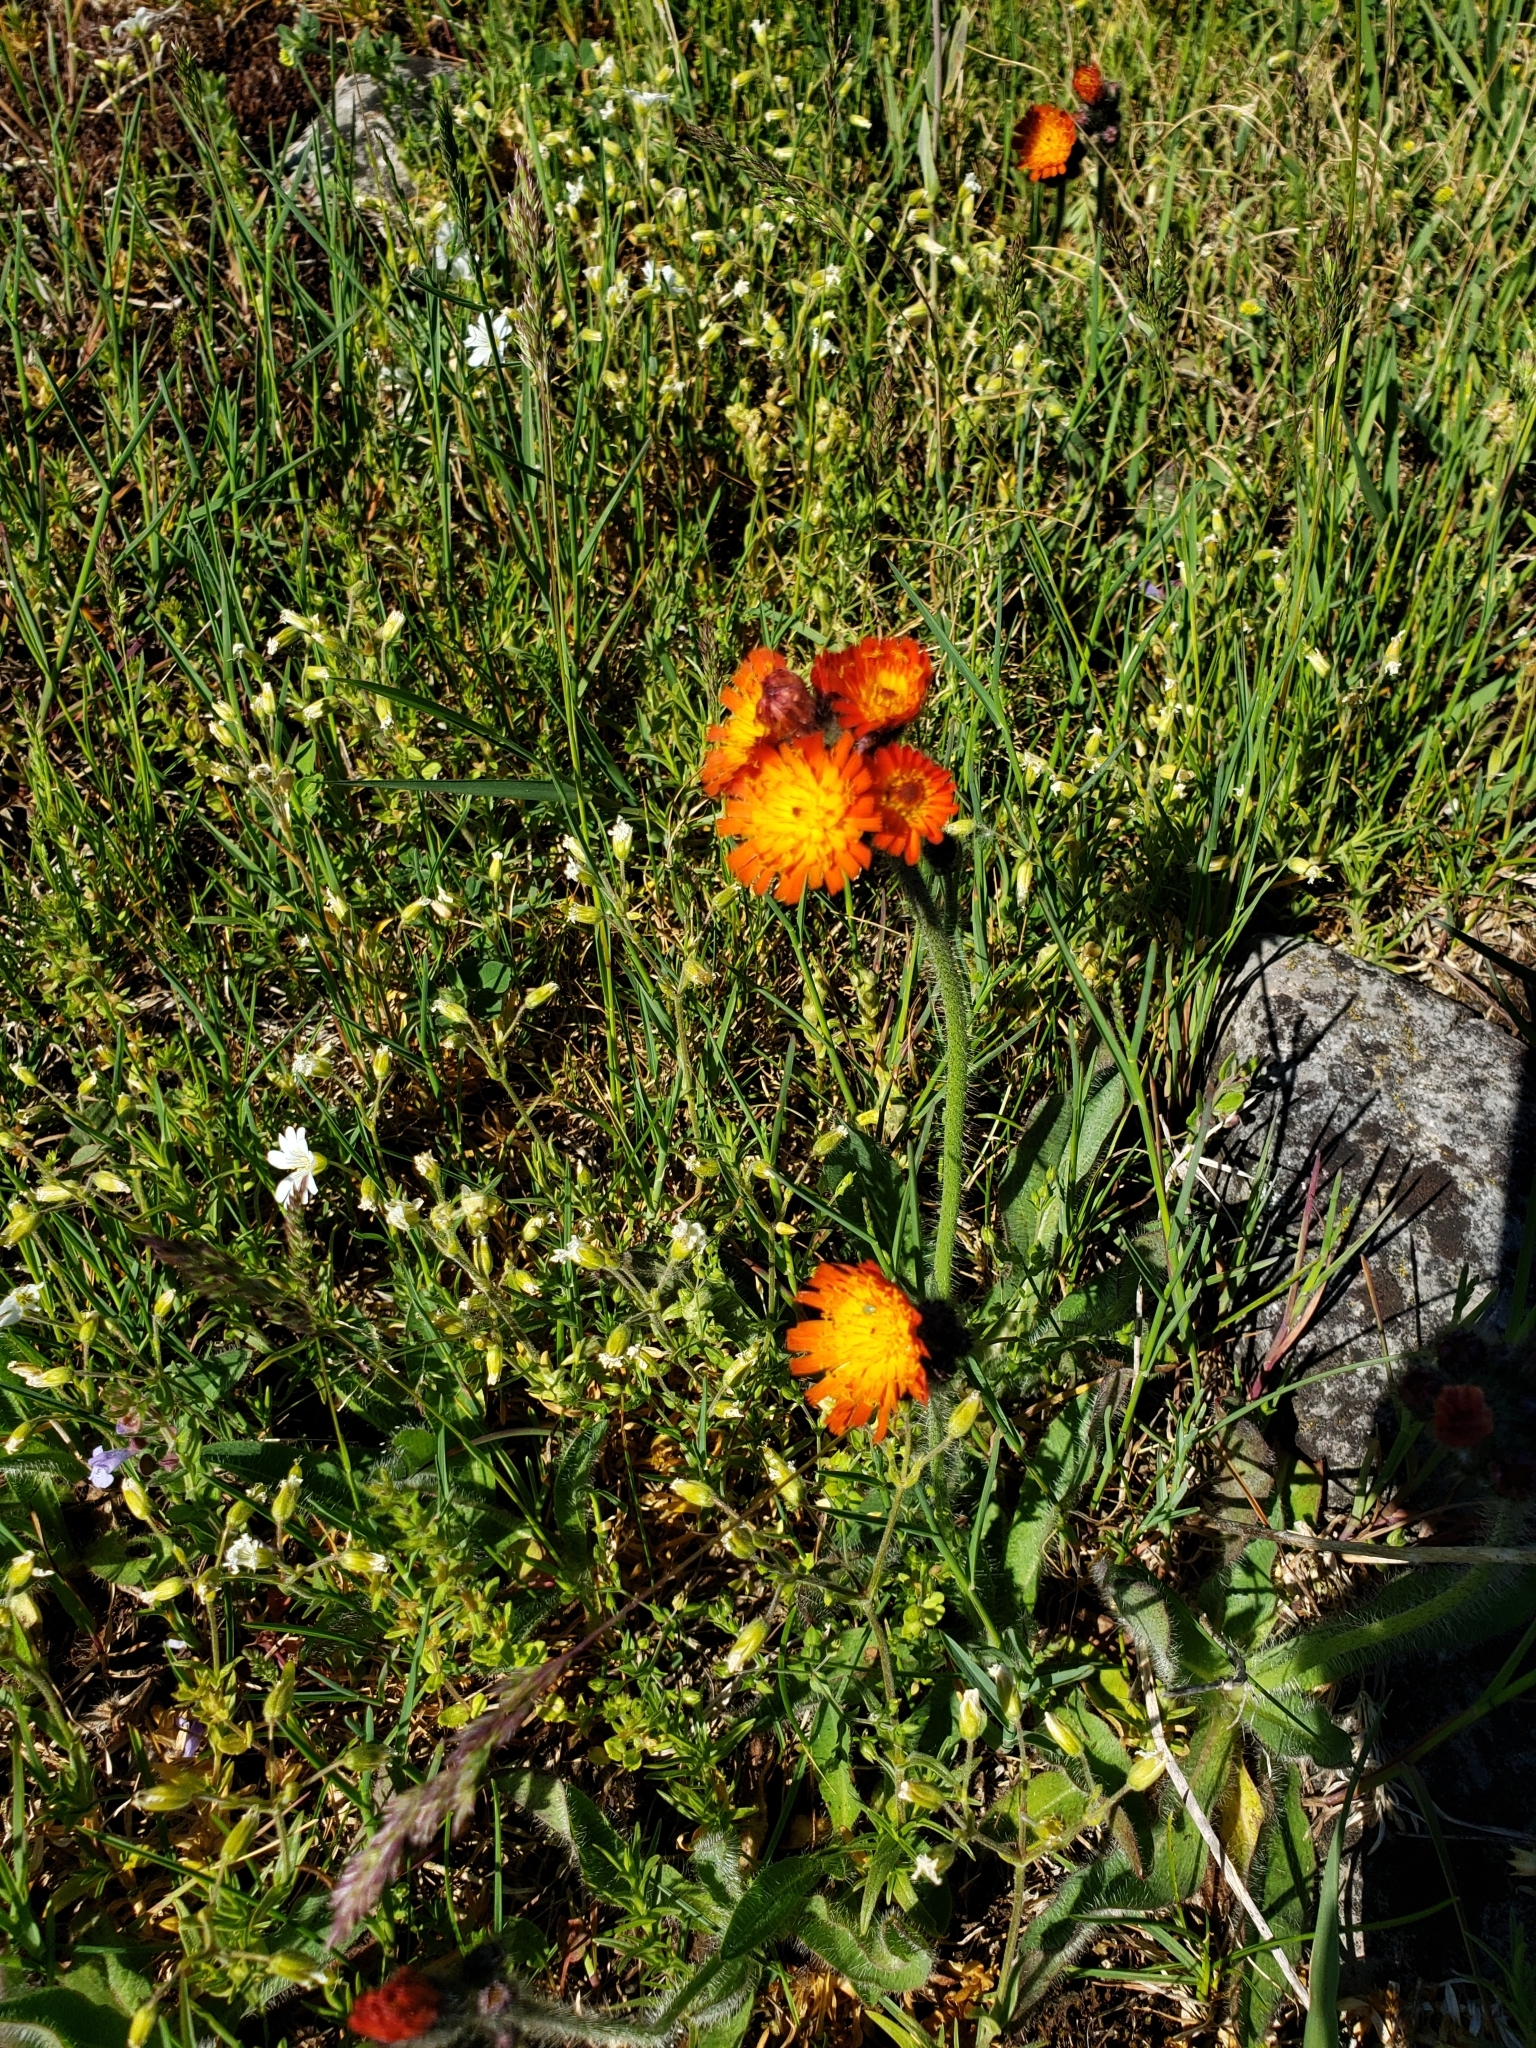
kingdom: Plantae
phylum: Tracheophyta
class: Magnoliopsida
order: Asterales
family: Asteraceae
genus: Pilosella
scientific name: Pilosella aurantiaca
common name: Fox-and-cubs
